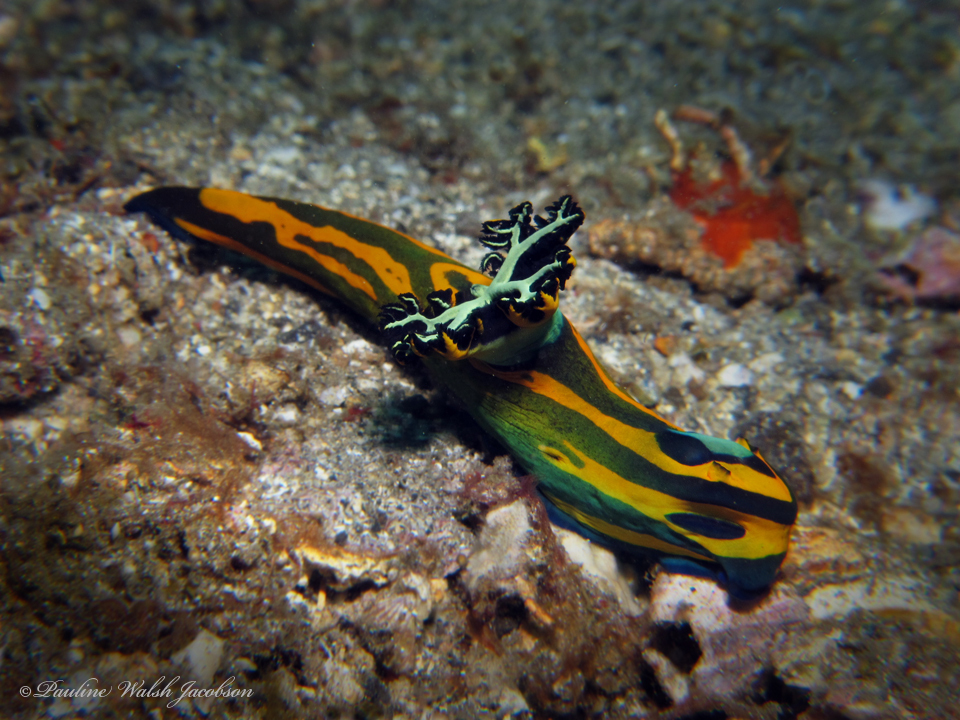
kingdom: Animalia
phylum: Mollusca
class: Gastropoda
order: Nudibranchia
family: Polyceridae
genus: Tambja
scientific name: Tambja olivaria
